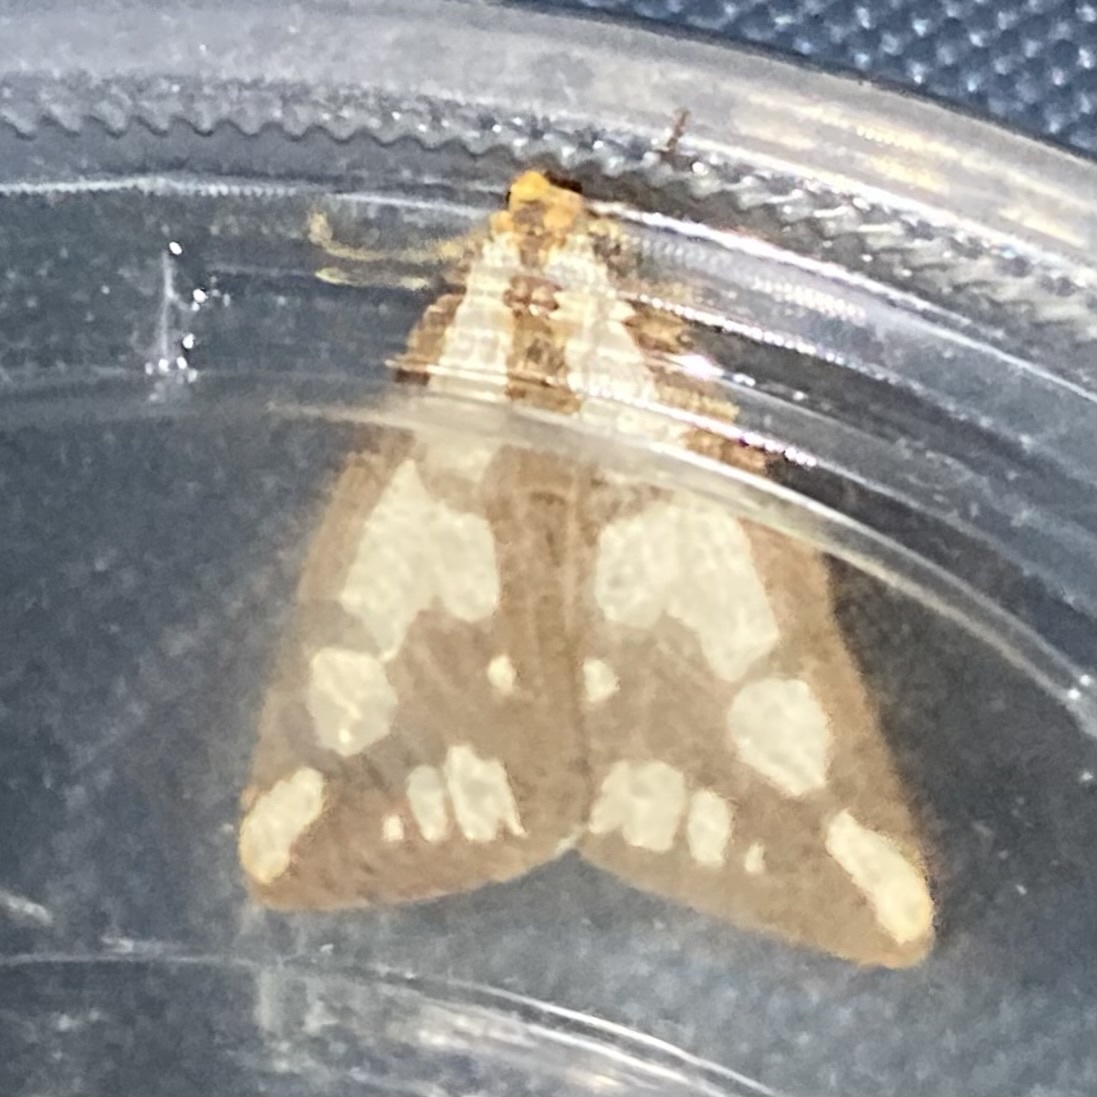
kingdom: Animalia
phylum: Arthropoda
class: Insecta
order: Lepidoptera
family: Erebidae
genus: Haploa
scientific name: Haploa confusa
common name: Confused haploa moth
